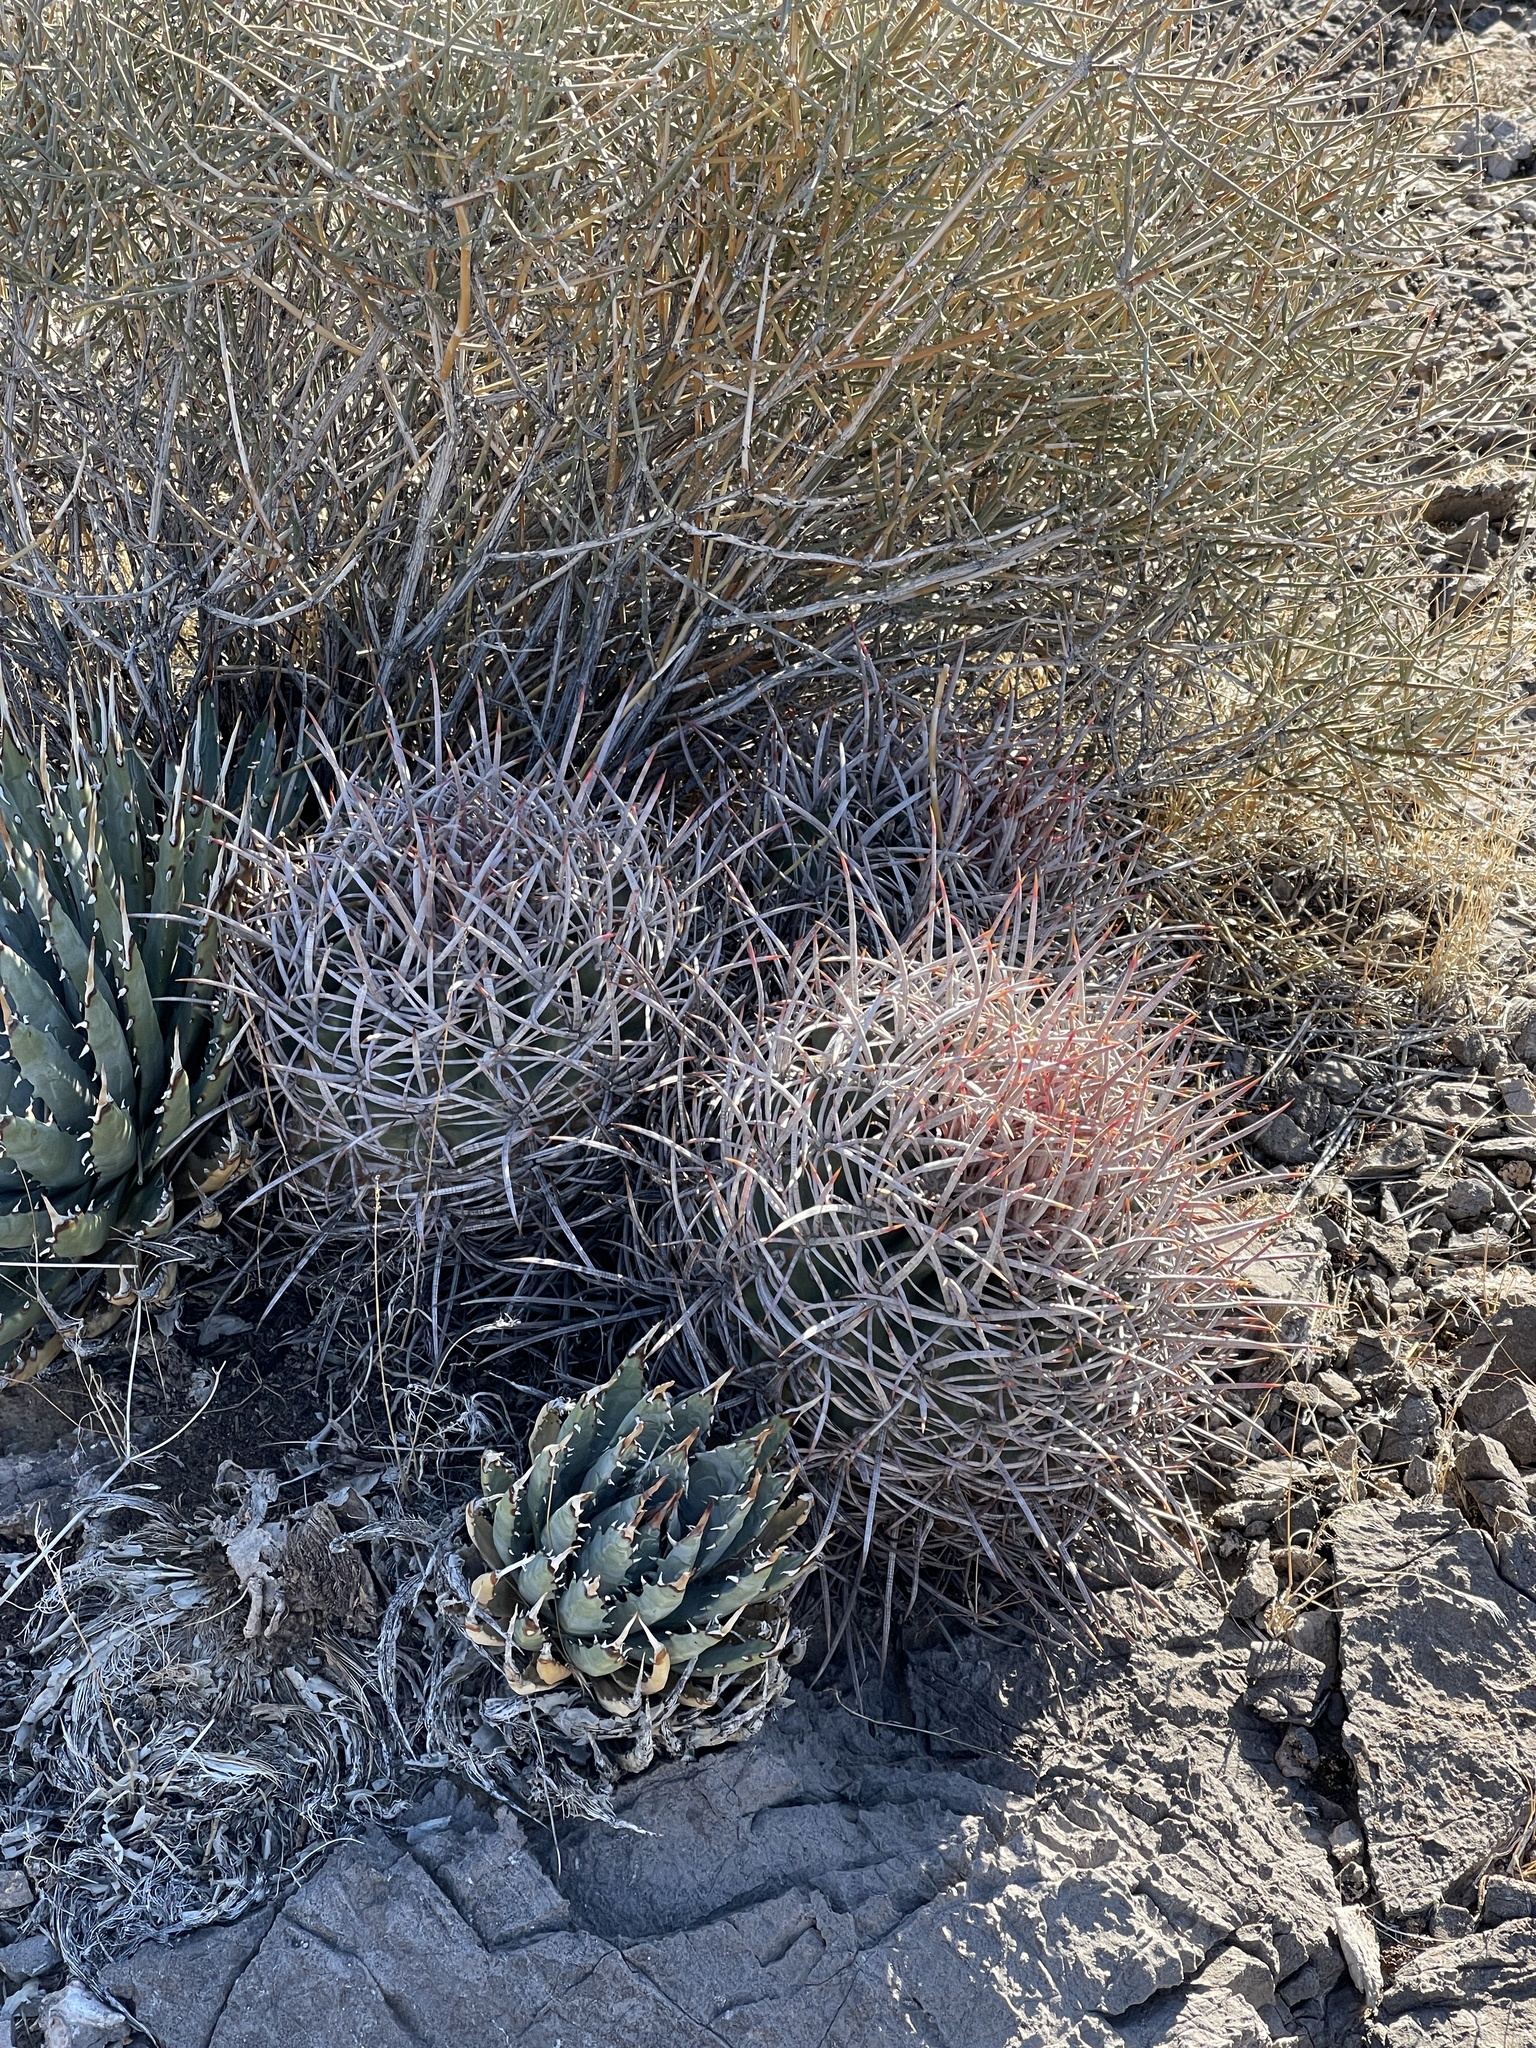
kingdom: Plantae
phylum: Tracheophyta
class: Magnoliopsida
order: Caryophyllales
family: Cactaceae
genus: Echinocactus
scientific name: Echinocactus polycephalus
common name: Cottontop cactus
